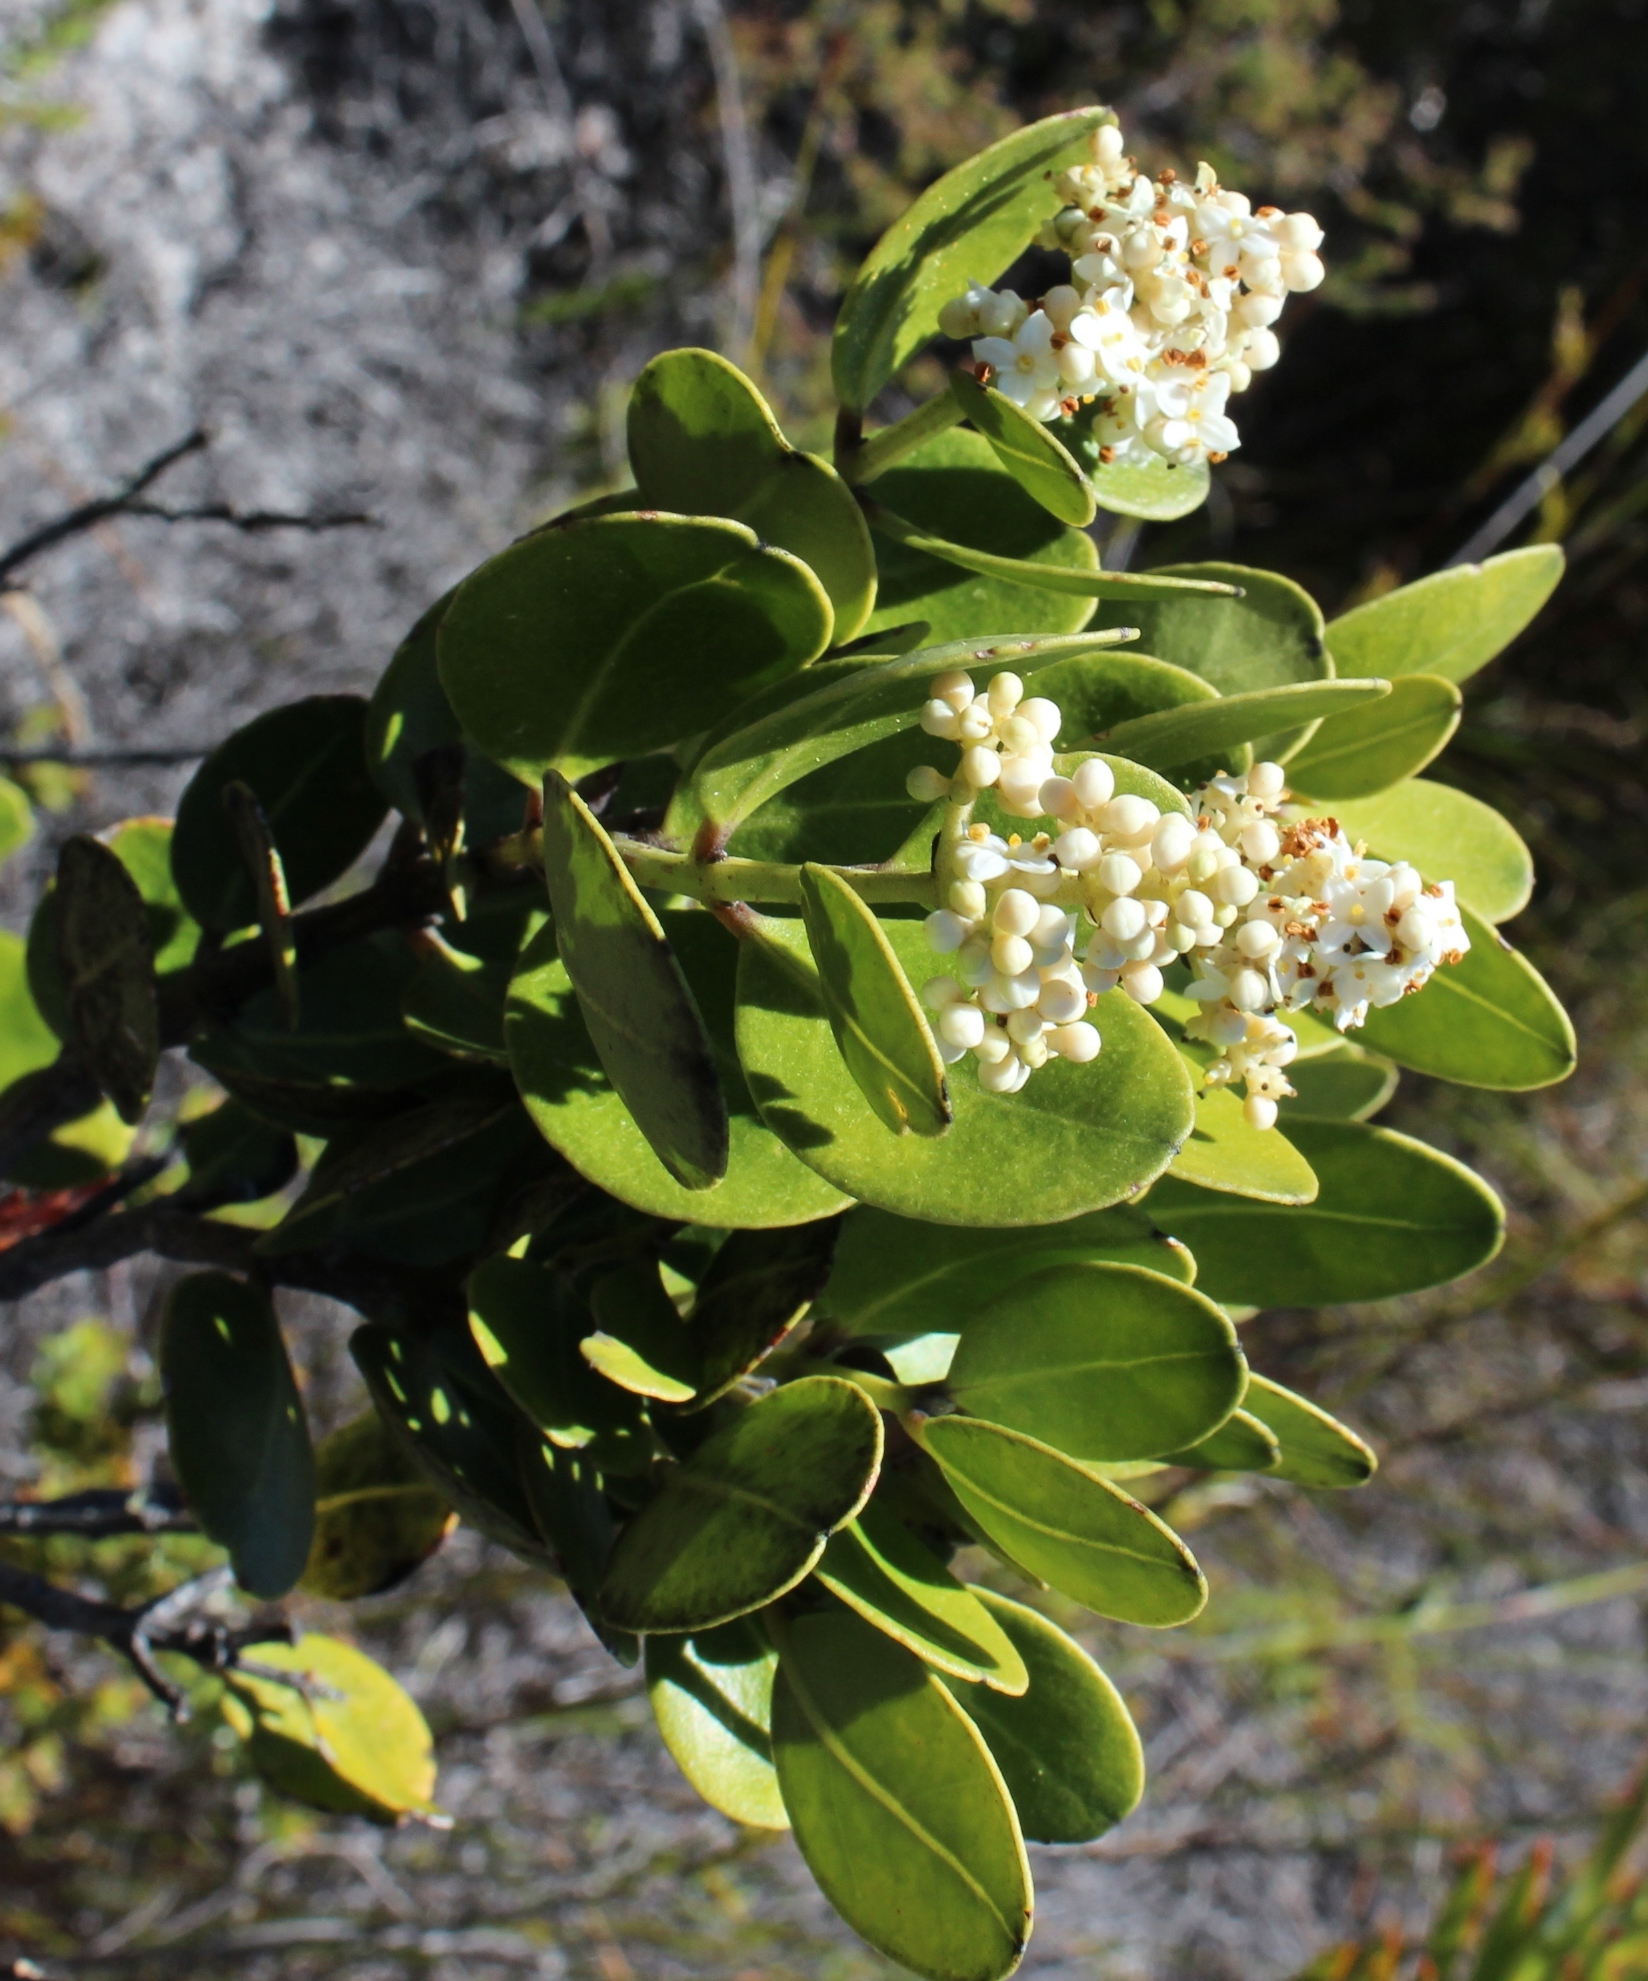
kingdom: Plantae
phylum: Tracheophyta
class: Magnoliopsida
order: Lamiales
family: Oleaceae
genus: Olea
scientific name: Olea capensis
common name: Black ironwood
